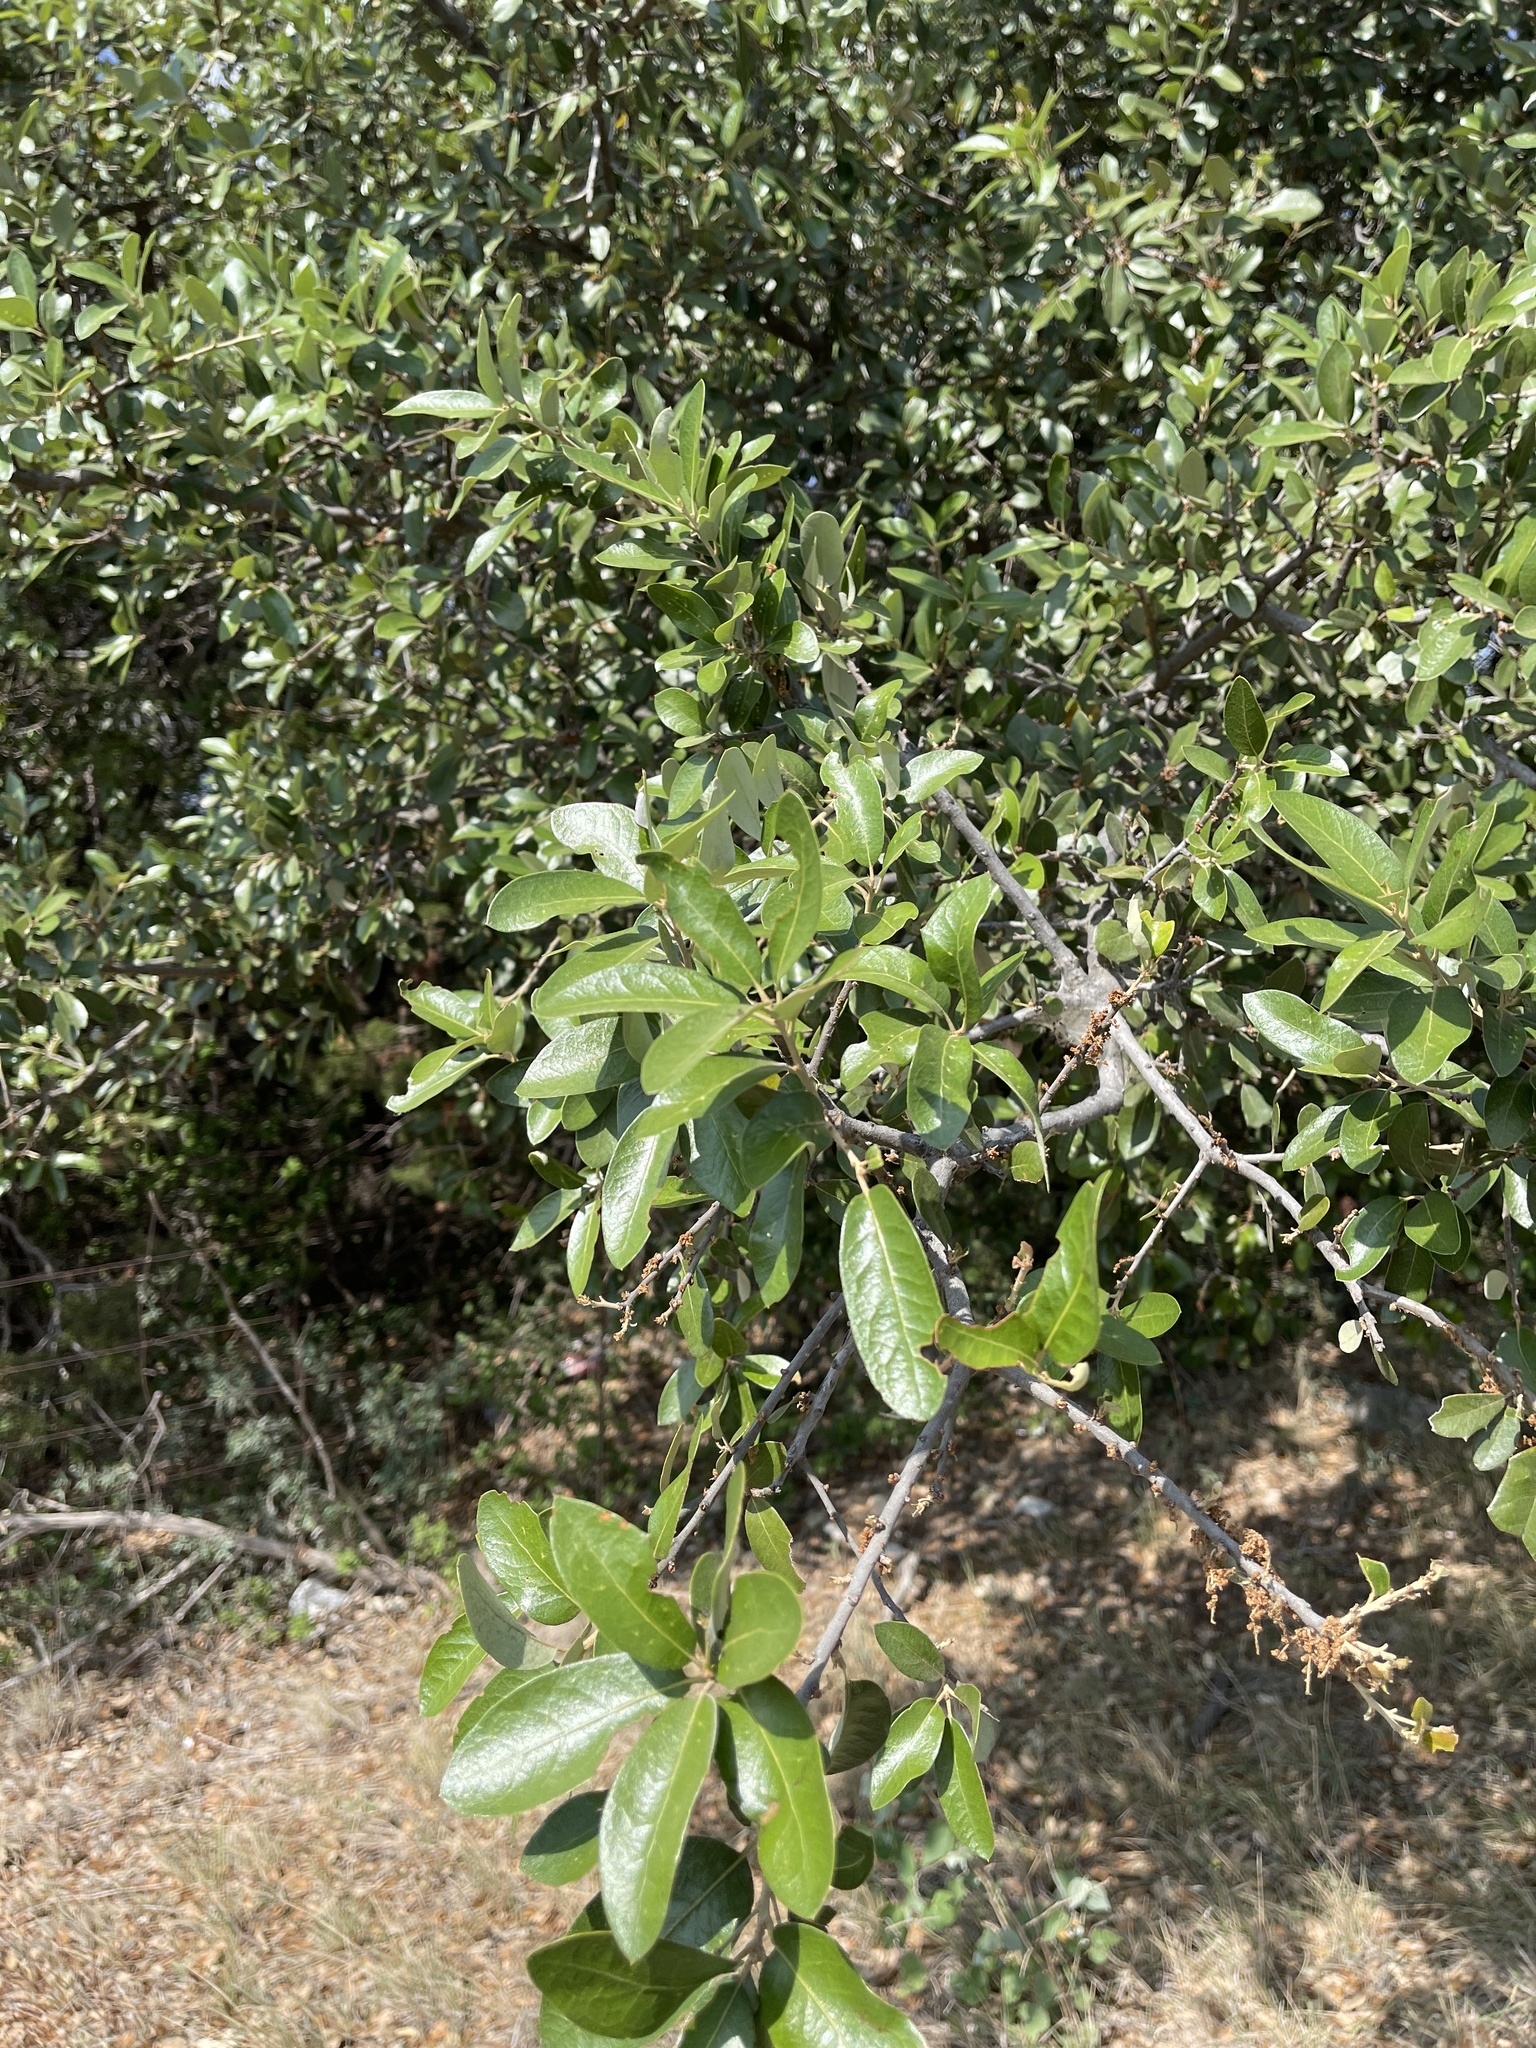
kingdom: Plantae
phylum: Tracheophyta
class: Magnoliopsida
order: Fagales
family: Fagaceae
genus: Quercus
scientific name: Quercus fusiformis
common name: Texas live oak
